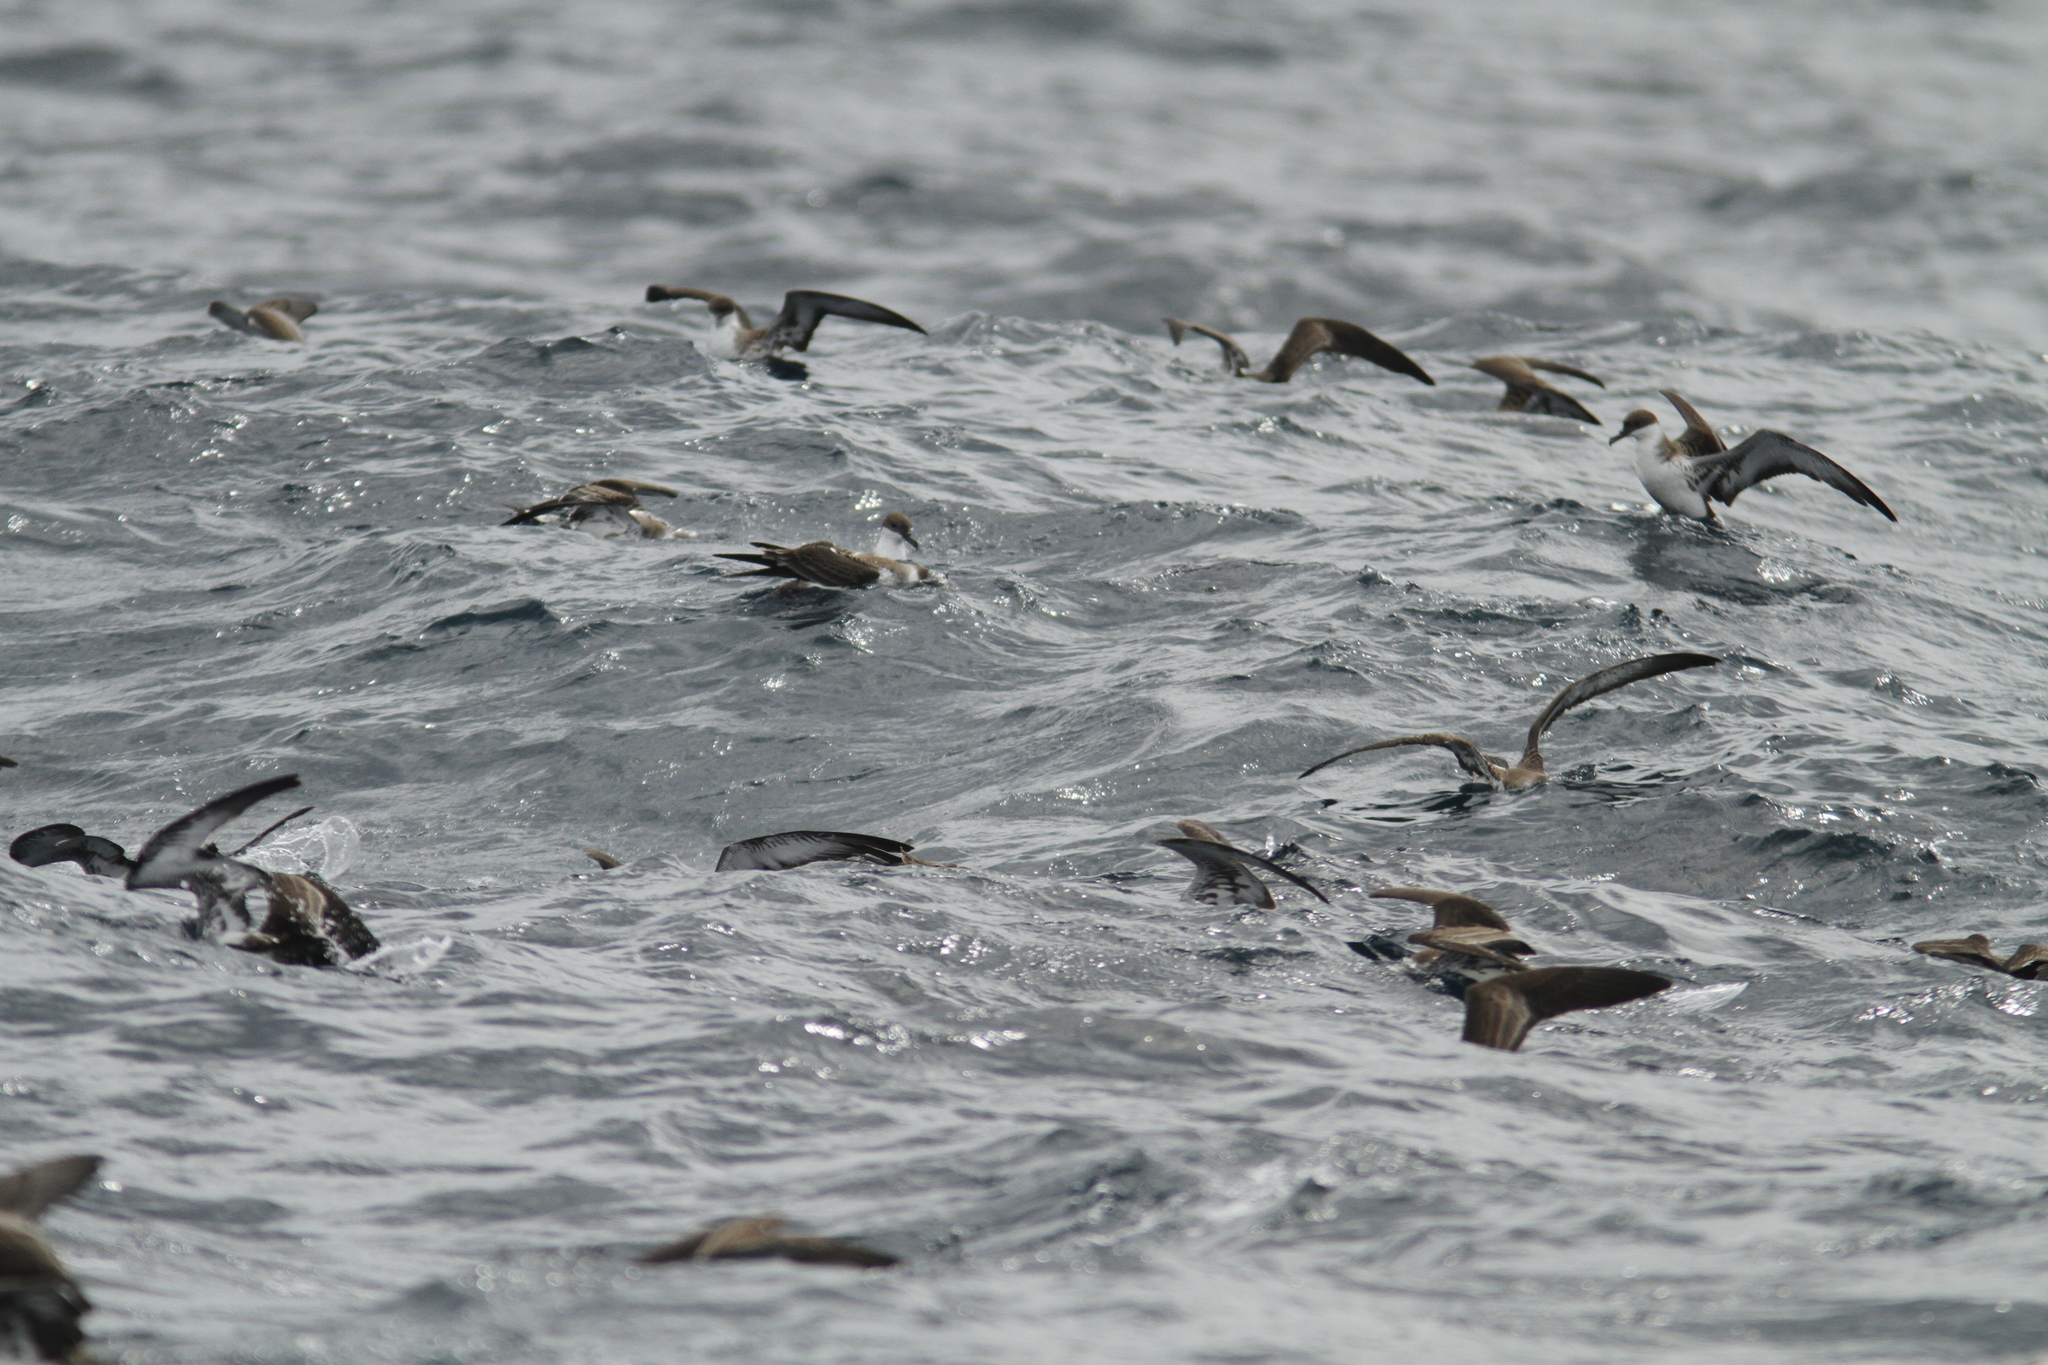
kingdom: Animalia
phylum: Chordata
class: Aves
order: Procellariiformes
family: Procellariidae
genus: Puffinus
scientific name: Puffinus gravis
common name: Great shearwater
